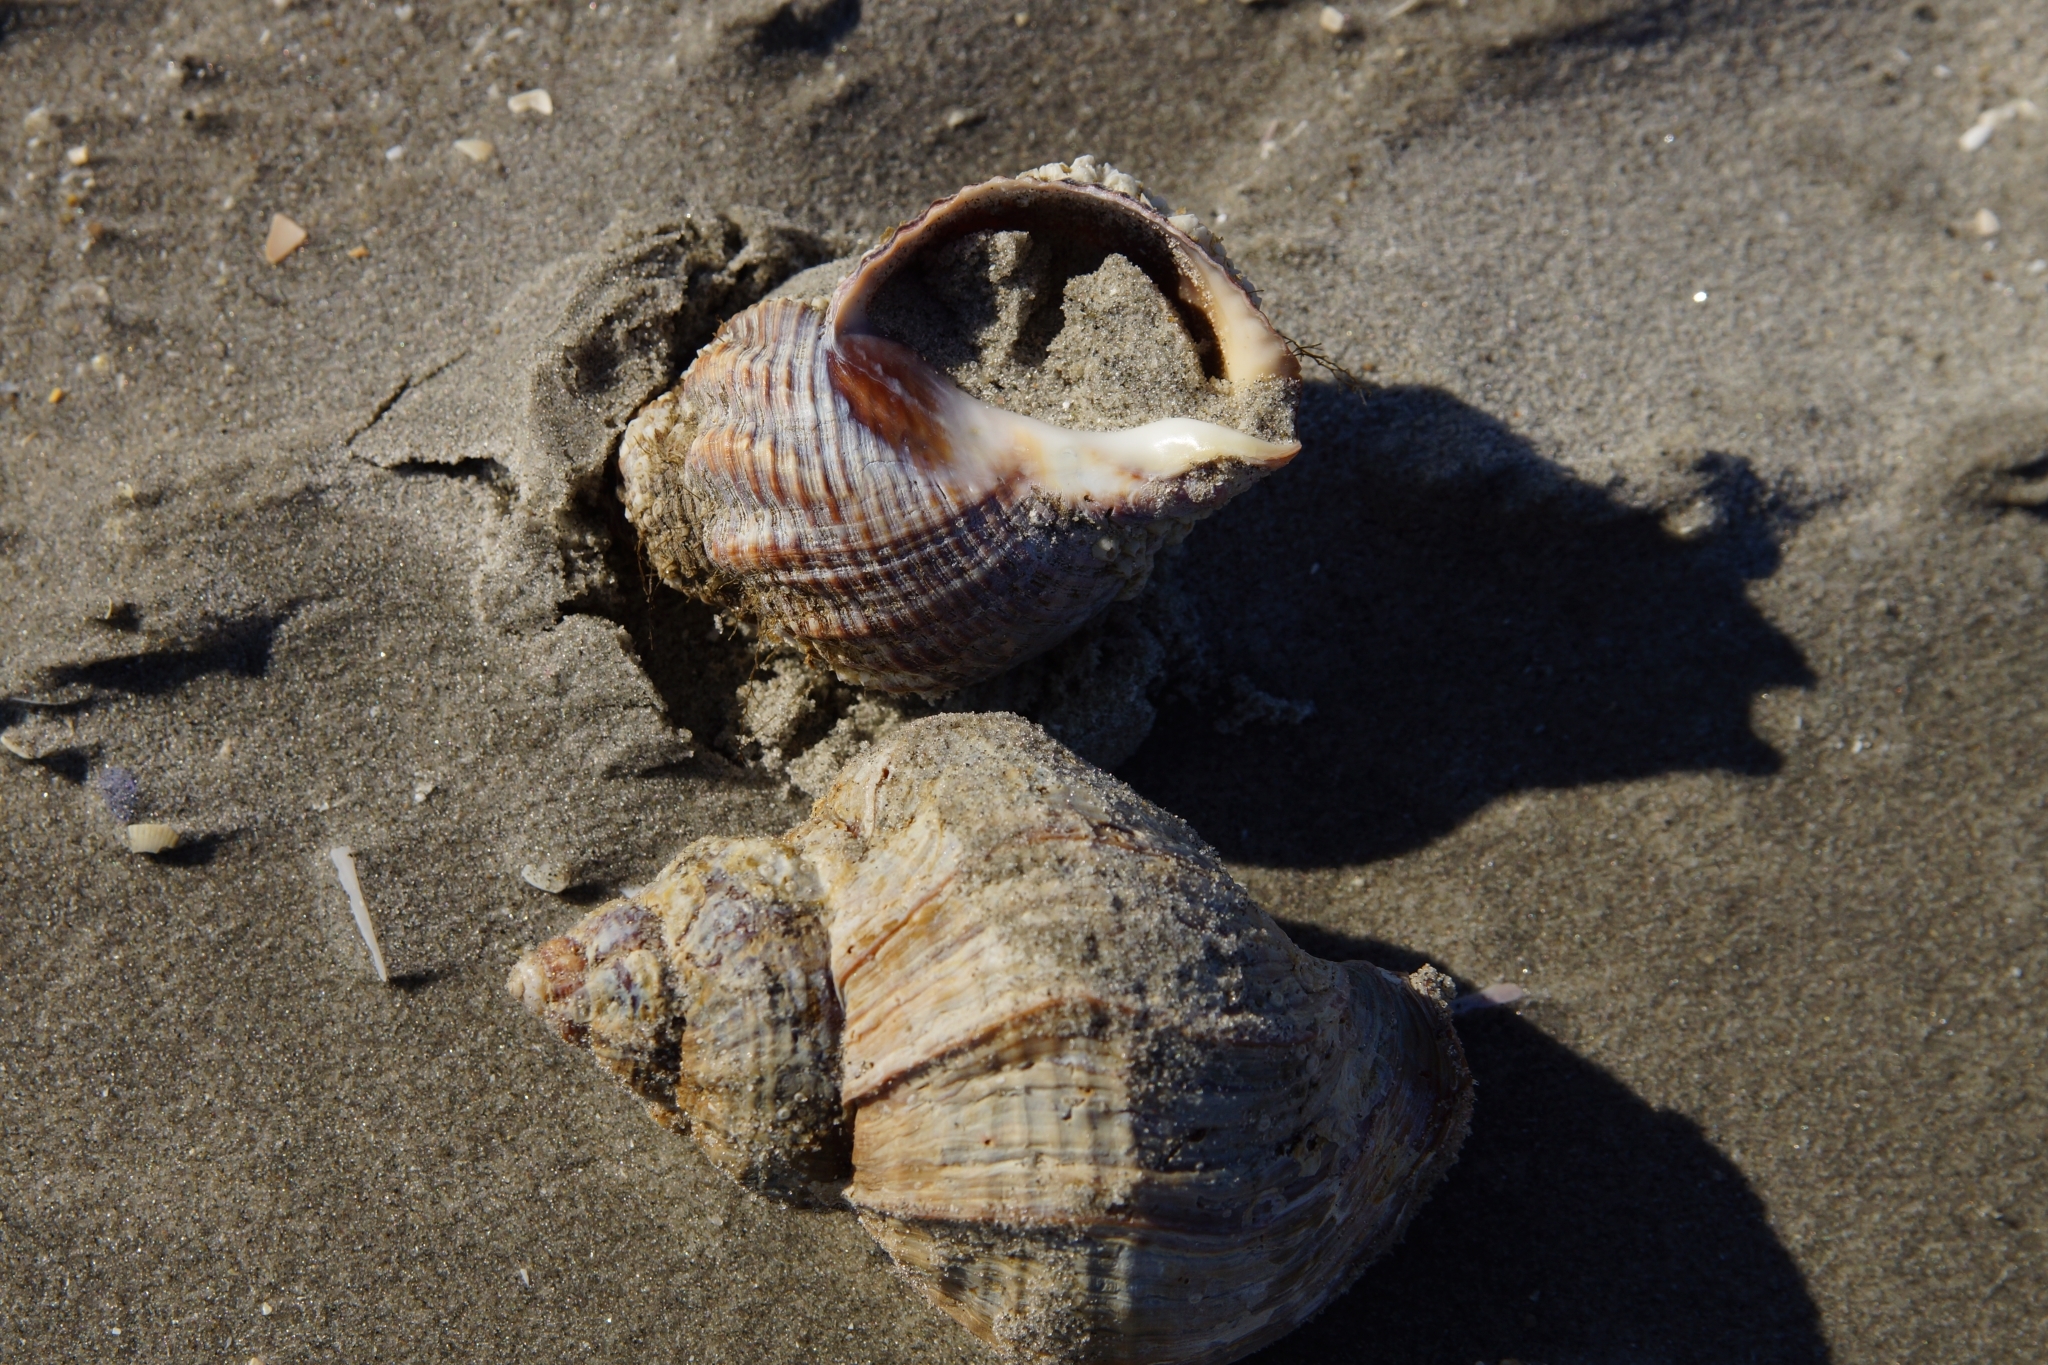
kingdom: Animalia
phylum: Mollusca
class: Gastropoda
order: Neogastropoda
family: Buccinidae
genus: Buccinum
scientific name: Buccinum undatum
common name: Common whelk
